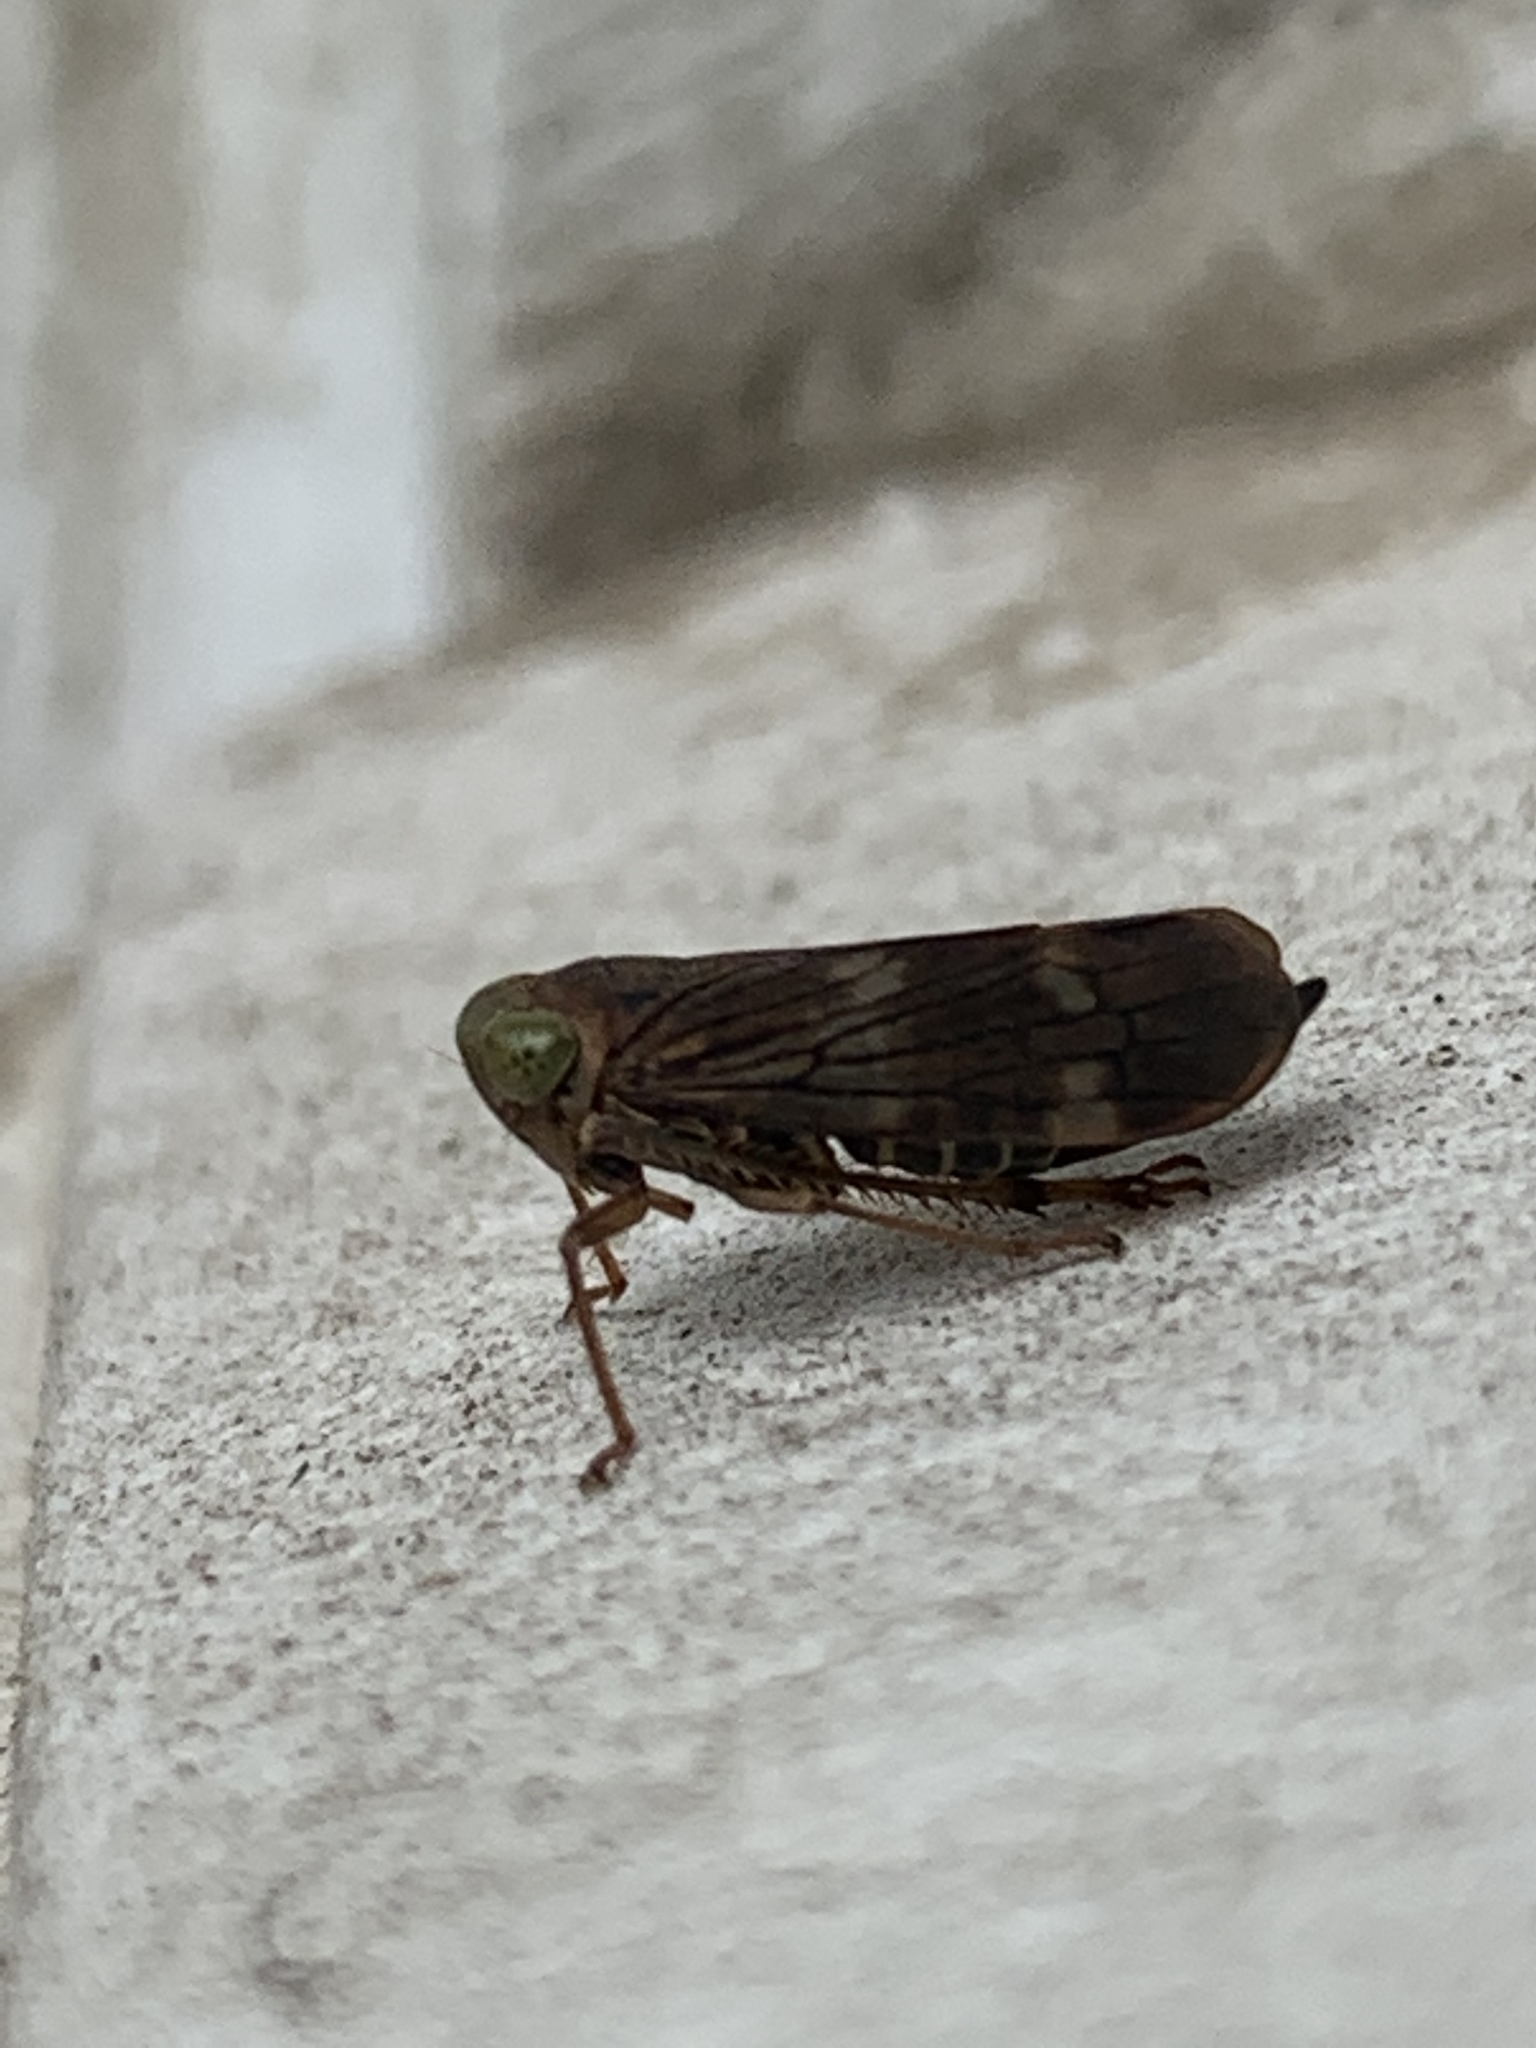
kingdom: Animalia
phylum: Arthropoda
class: Insecta
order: Hemiptera
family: Cicadellidae
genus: Jikradia
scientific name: Jikradia olitoria
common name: Coppery leafhopper
